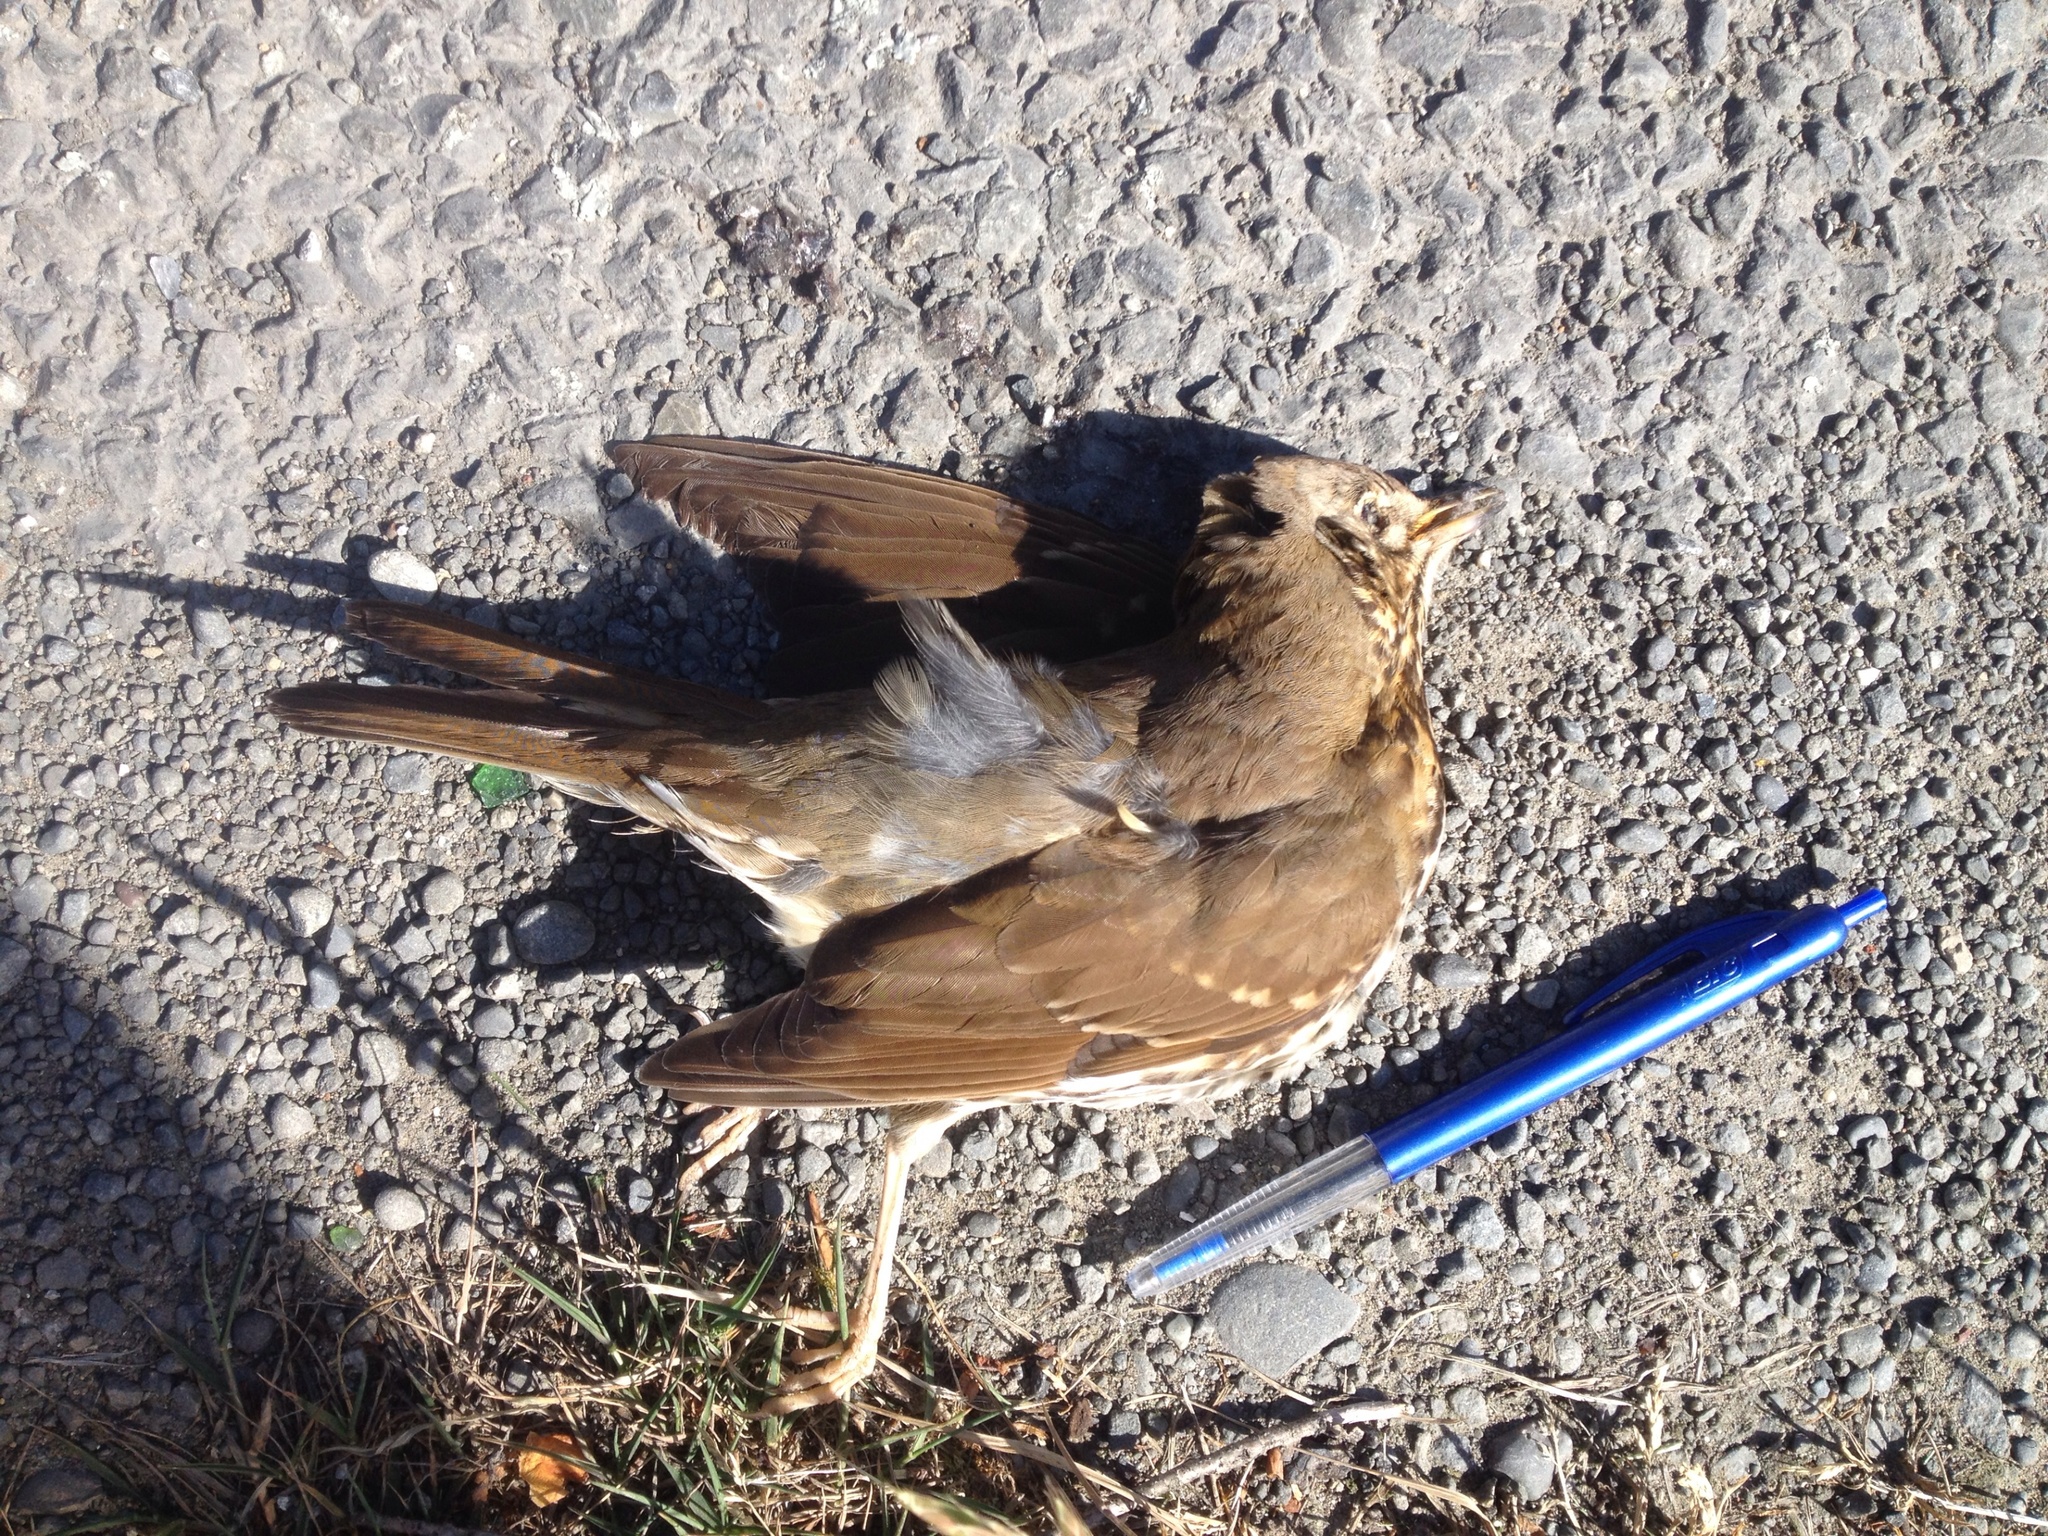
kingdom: Animalia
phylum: Chordata
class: Aves
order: Passeriformes
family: Turdidae
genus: Turdus
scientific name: Turdus philomelos
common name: Song thrush
